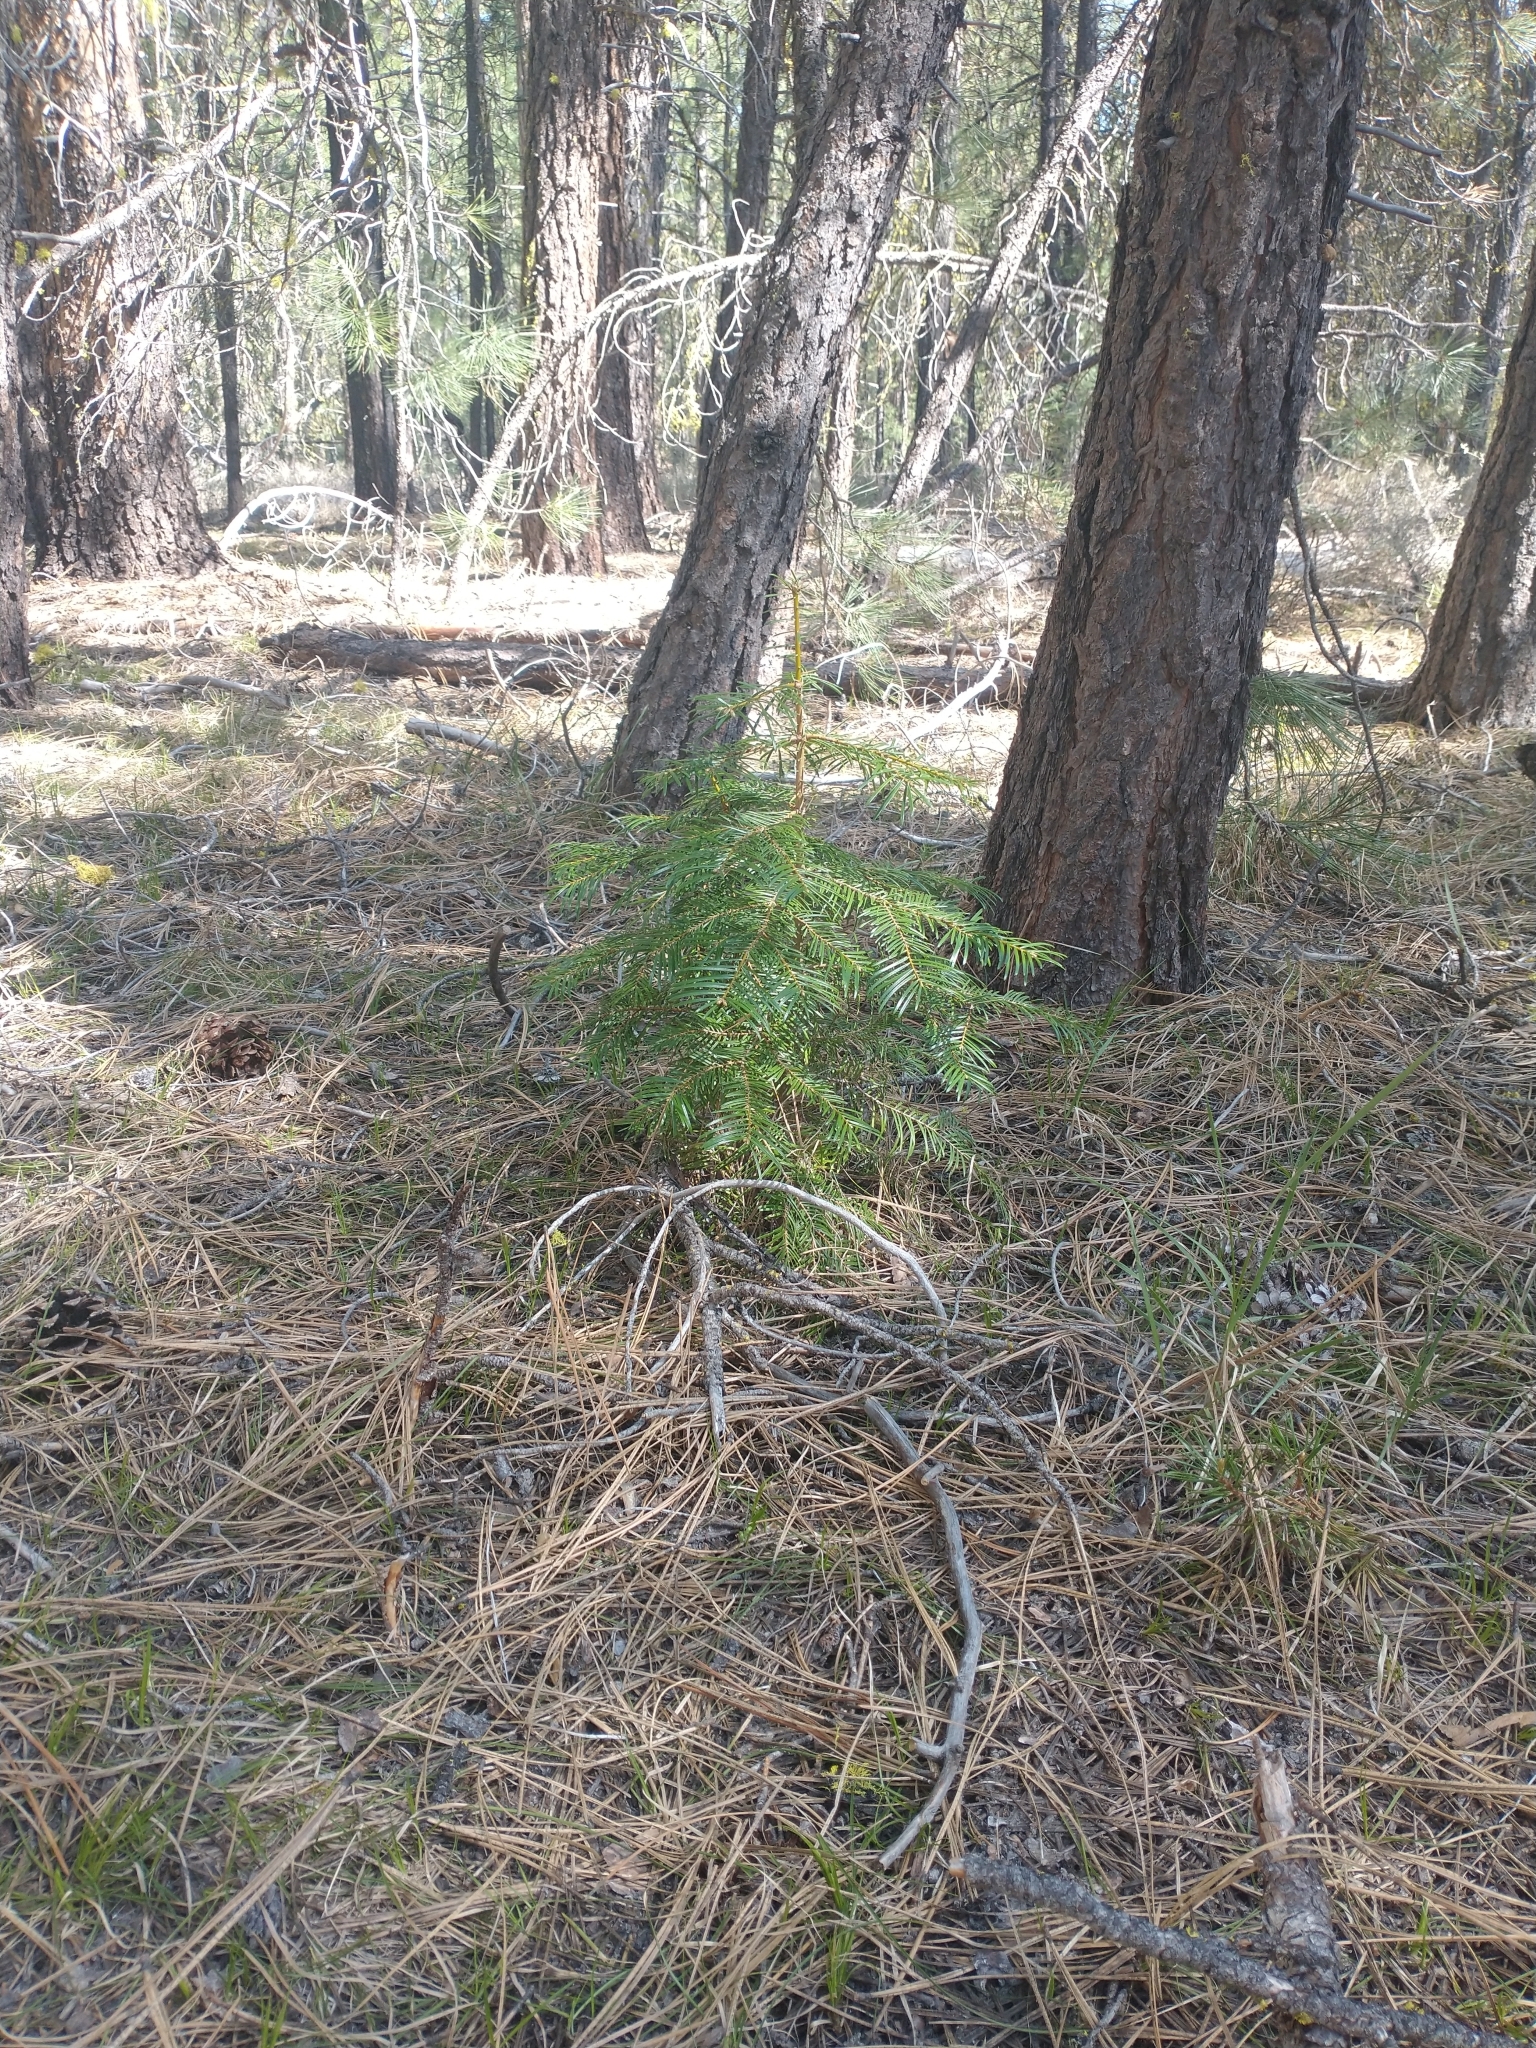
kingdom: Plantae
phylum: Tracheophyta
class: Pinopsida
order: Pinales
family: Pinaceae
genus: Abies
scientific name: Abies concolor
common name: Colorado fir
